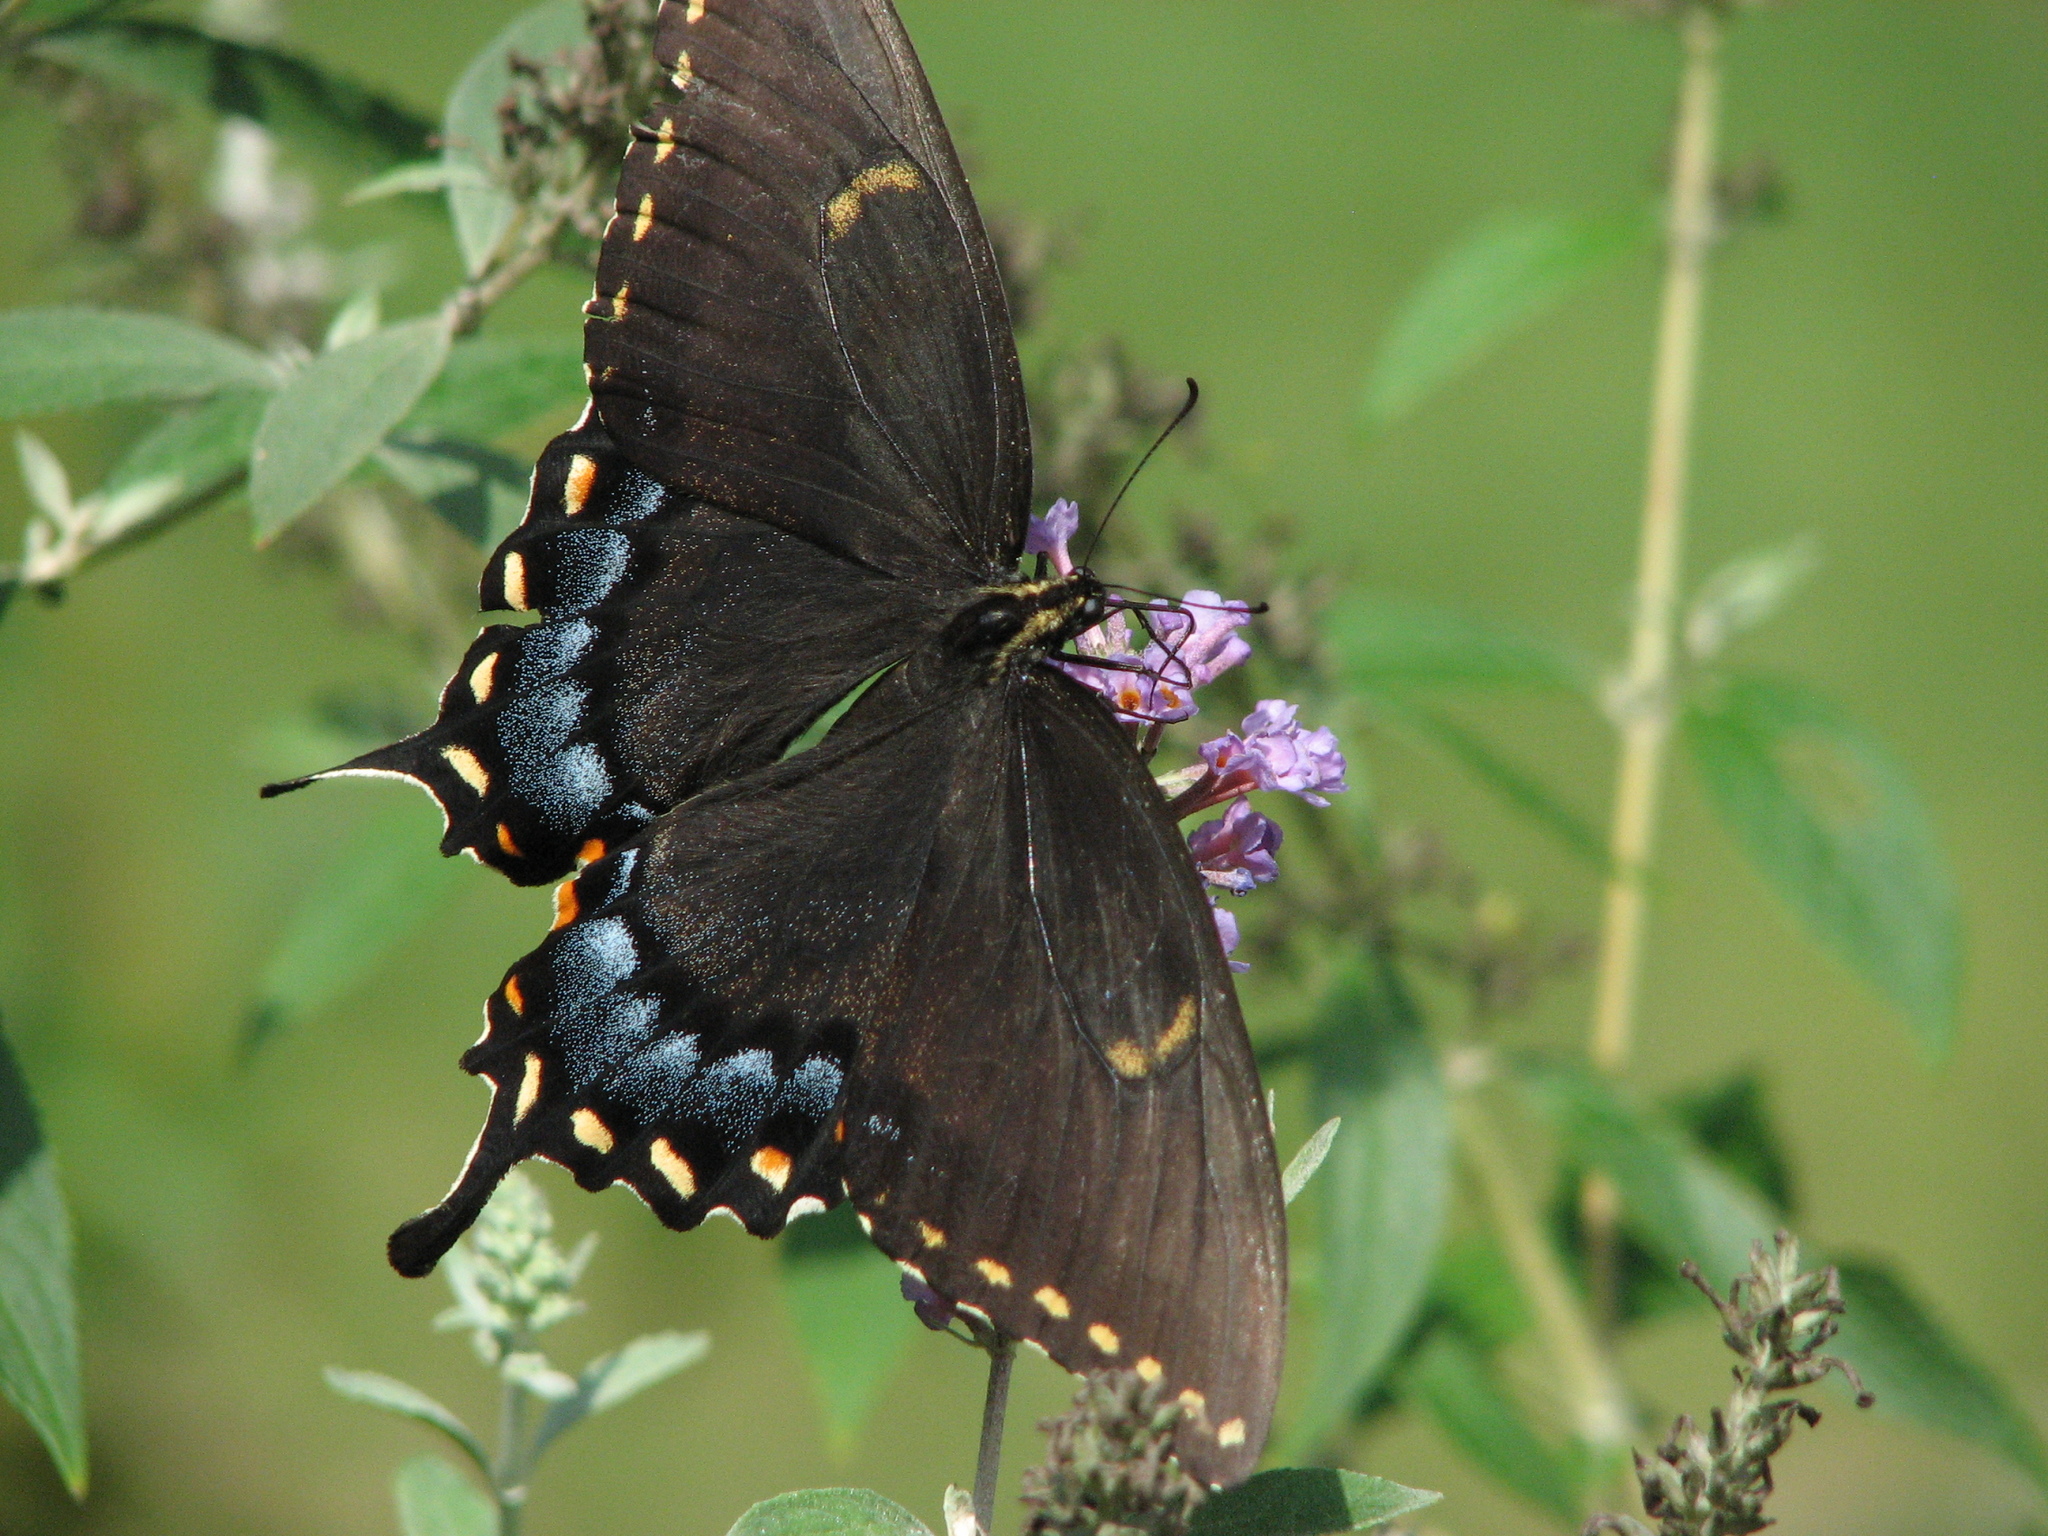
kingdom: Animalia
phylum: Arthropoda
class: Insecta
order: Lepidoptera
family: Papilionidae
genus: Papilio
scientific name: Papilio glaucus
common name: Tiger swallowtail
